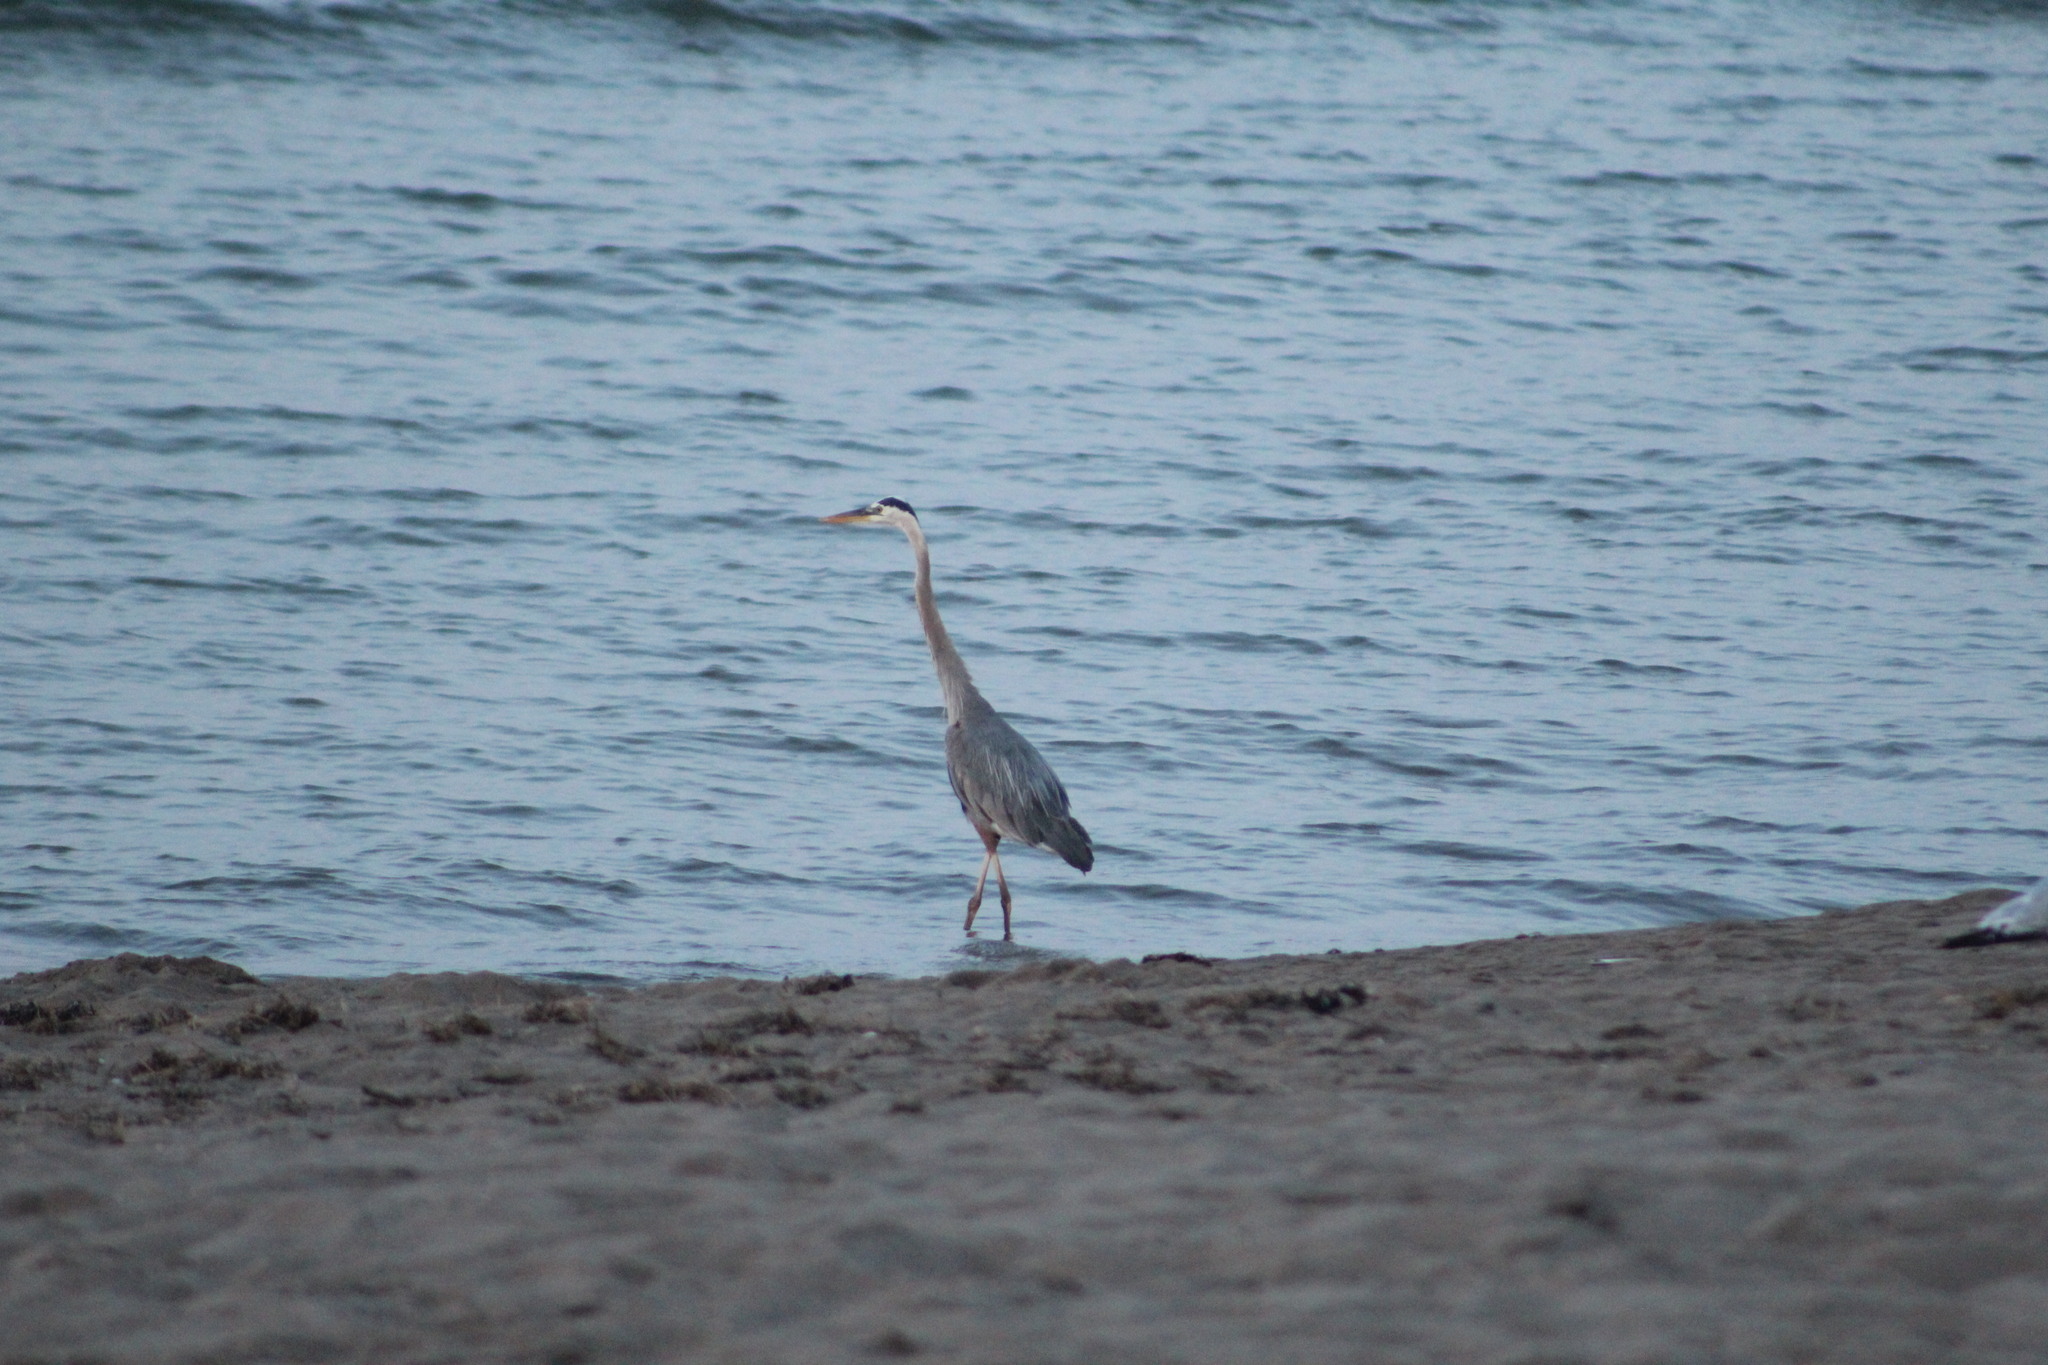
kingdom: Animalia
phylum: Chordata
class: Aves
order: Pelecaniformes
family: Ardeidae
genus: Ardea
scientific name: Ardea herodias
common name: Great blue heron
